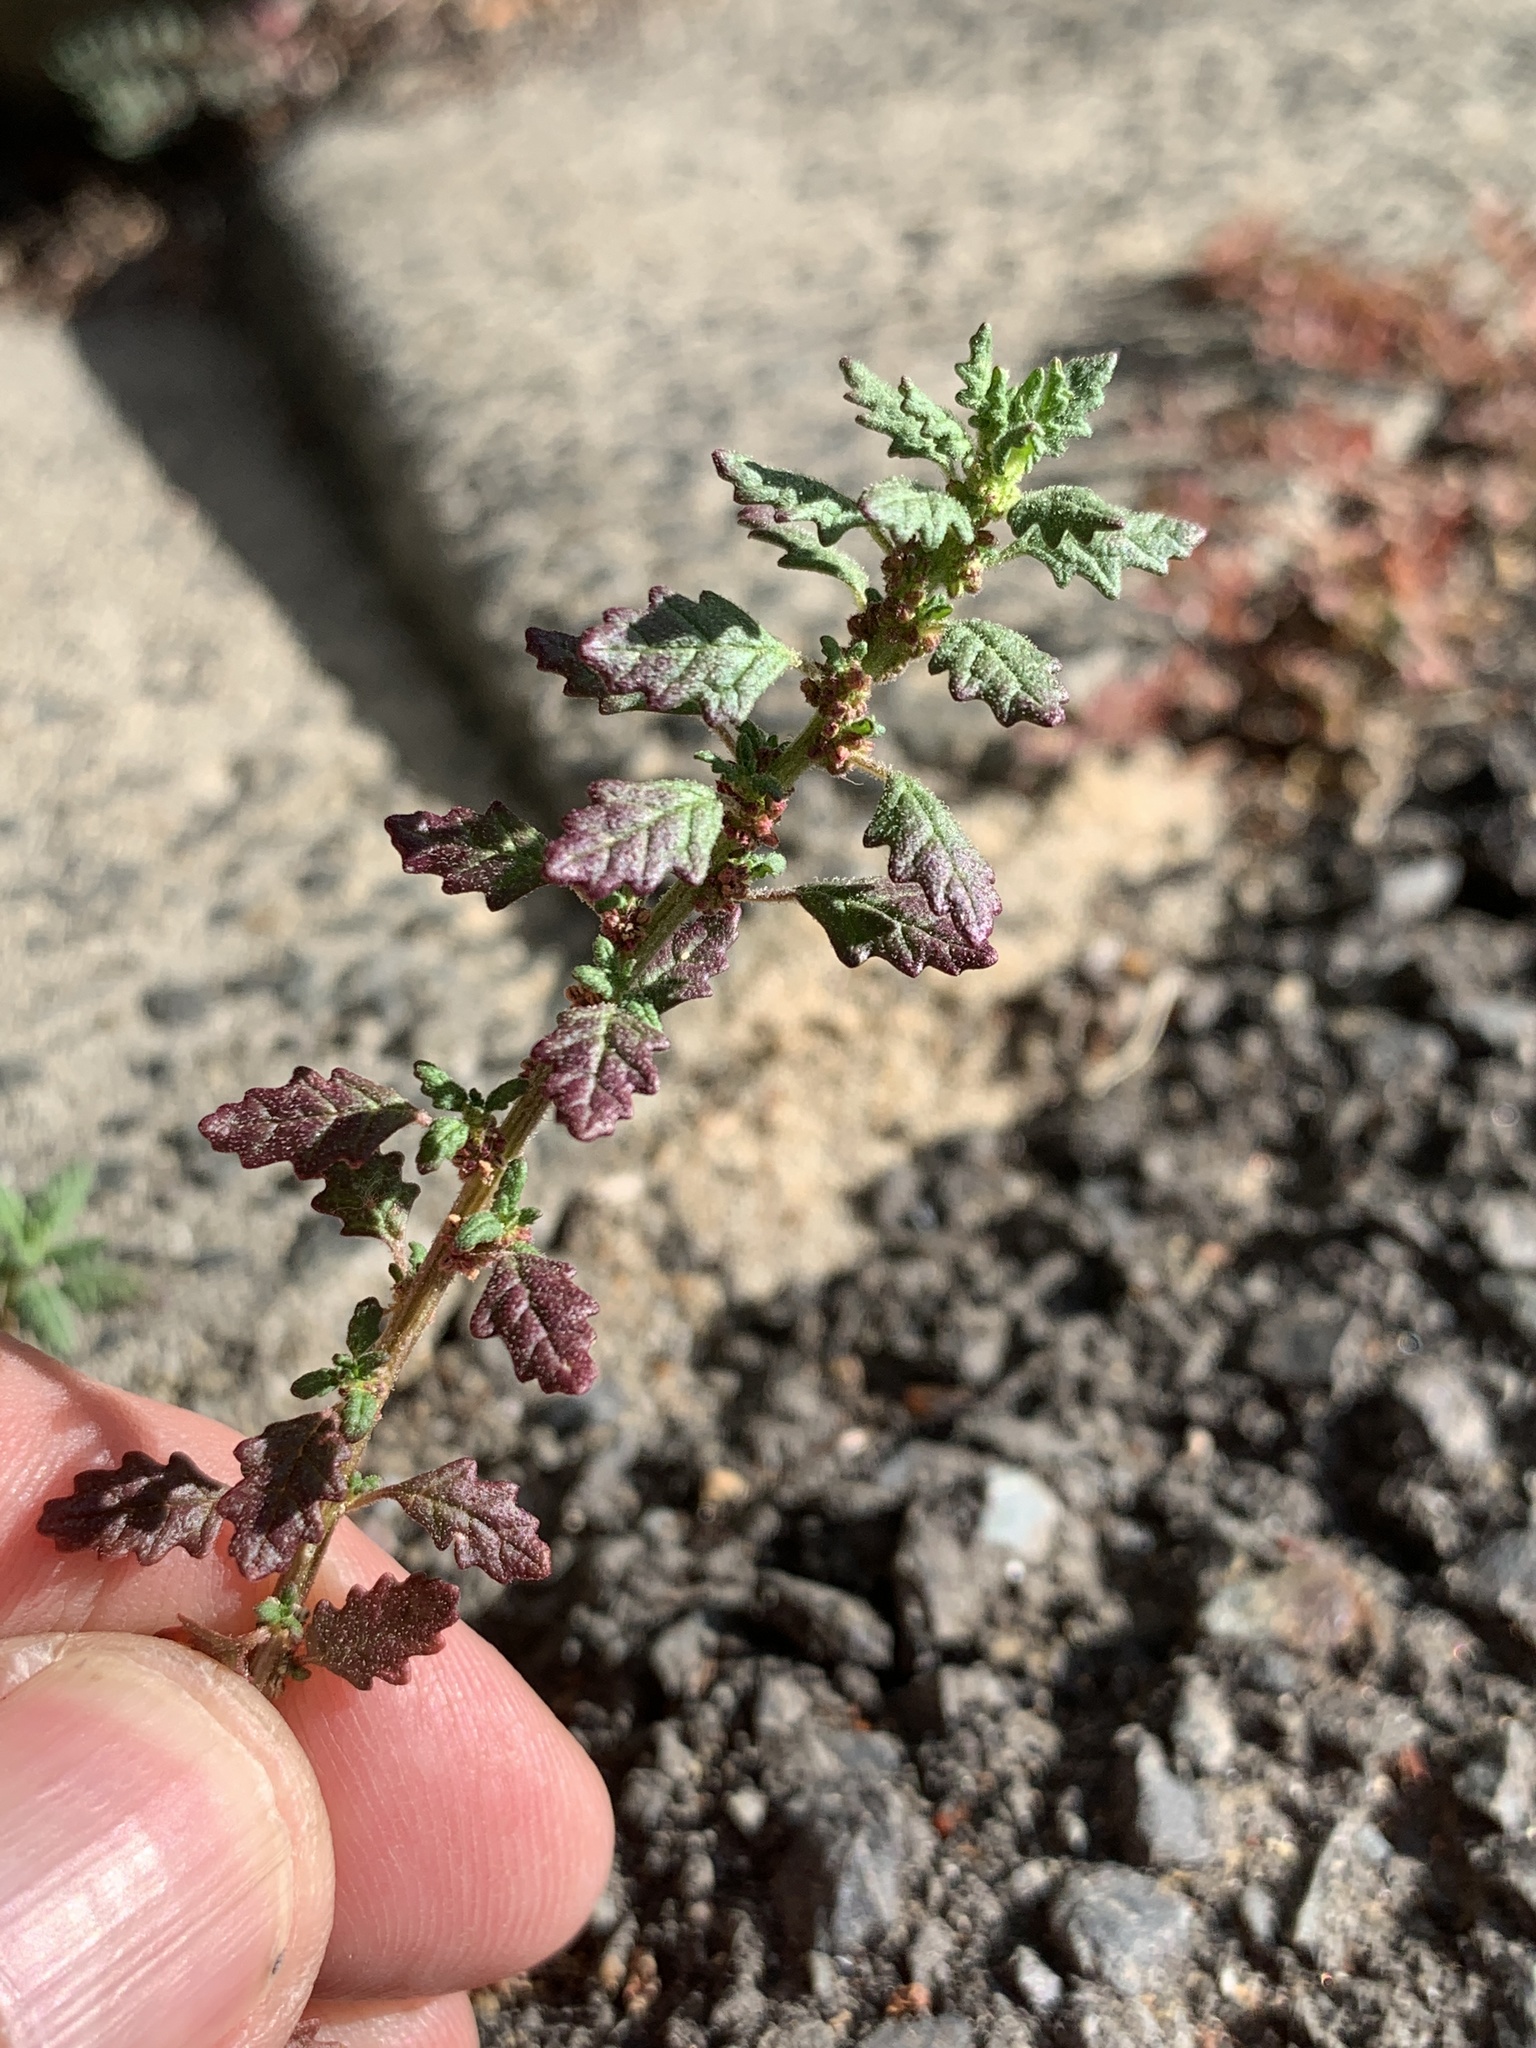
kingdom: Plantae
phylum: Tracheophyta
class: Magnoliopsida
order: Caryophyllales
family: Amaranthaceae
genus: Dysphania
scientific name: Dysphania pumilio
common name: Clammy goosefoot
